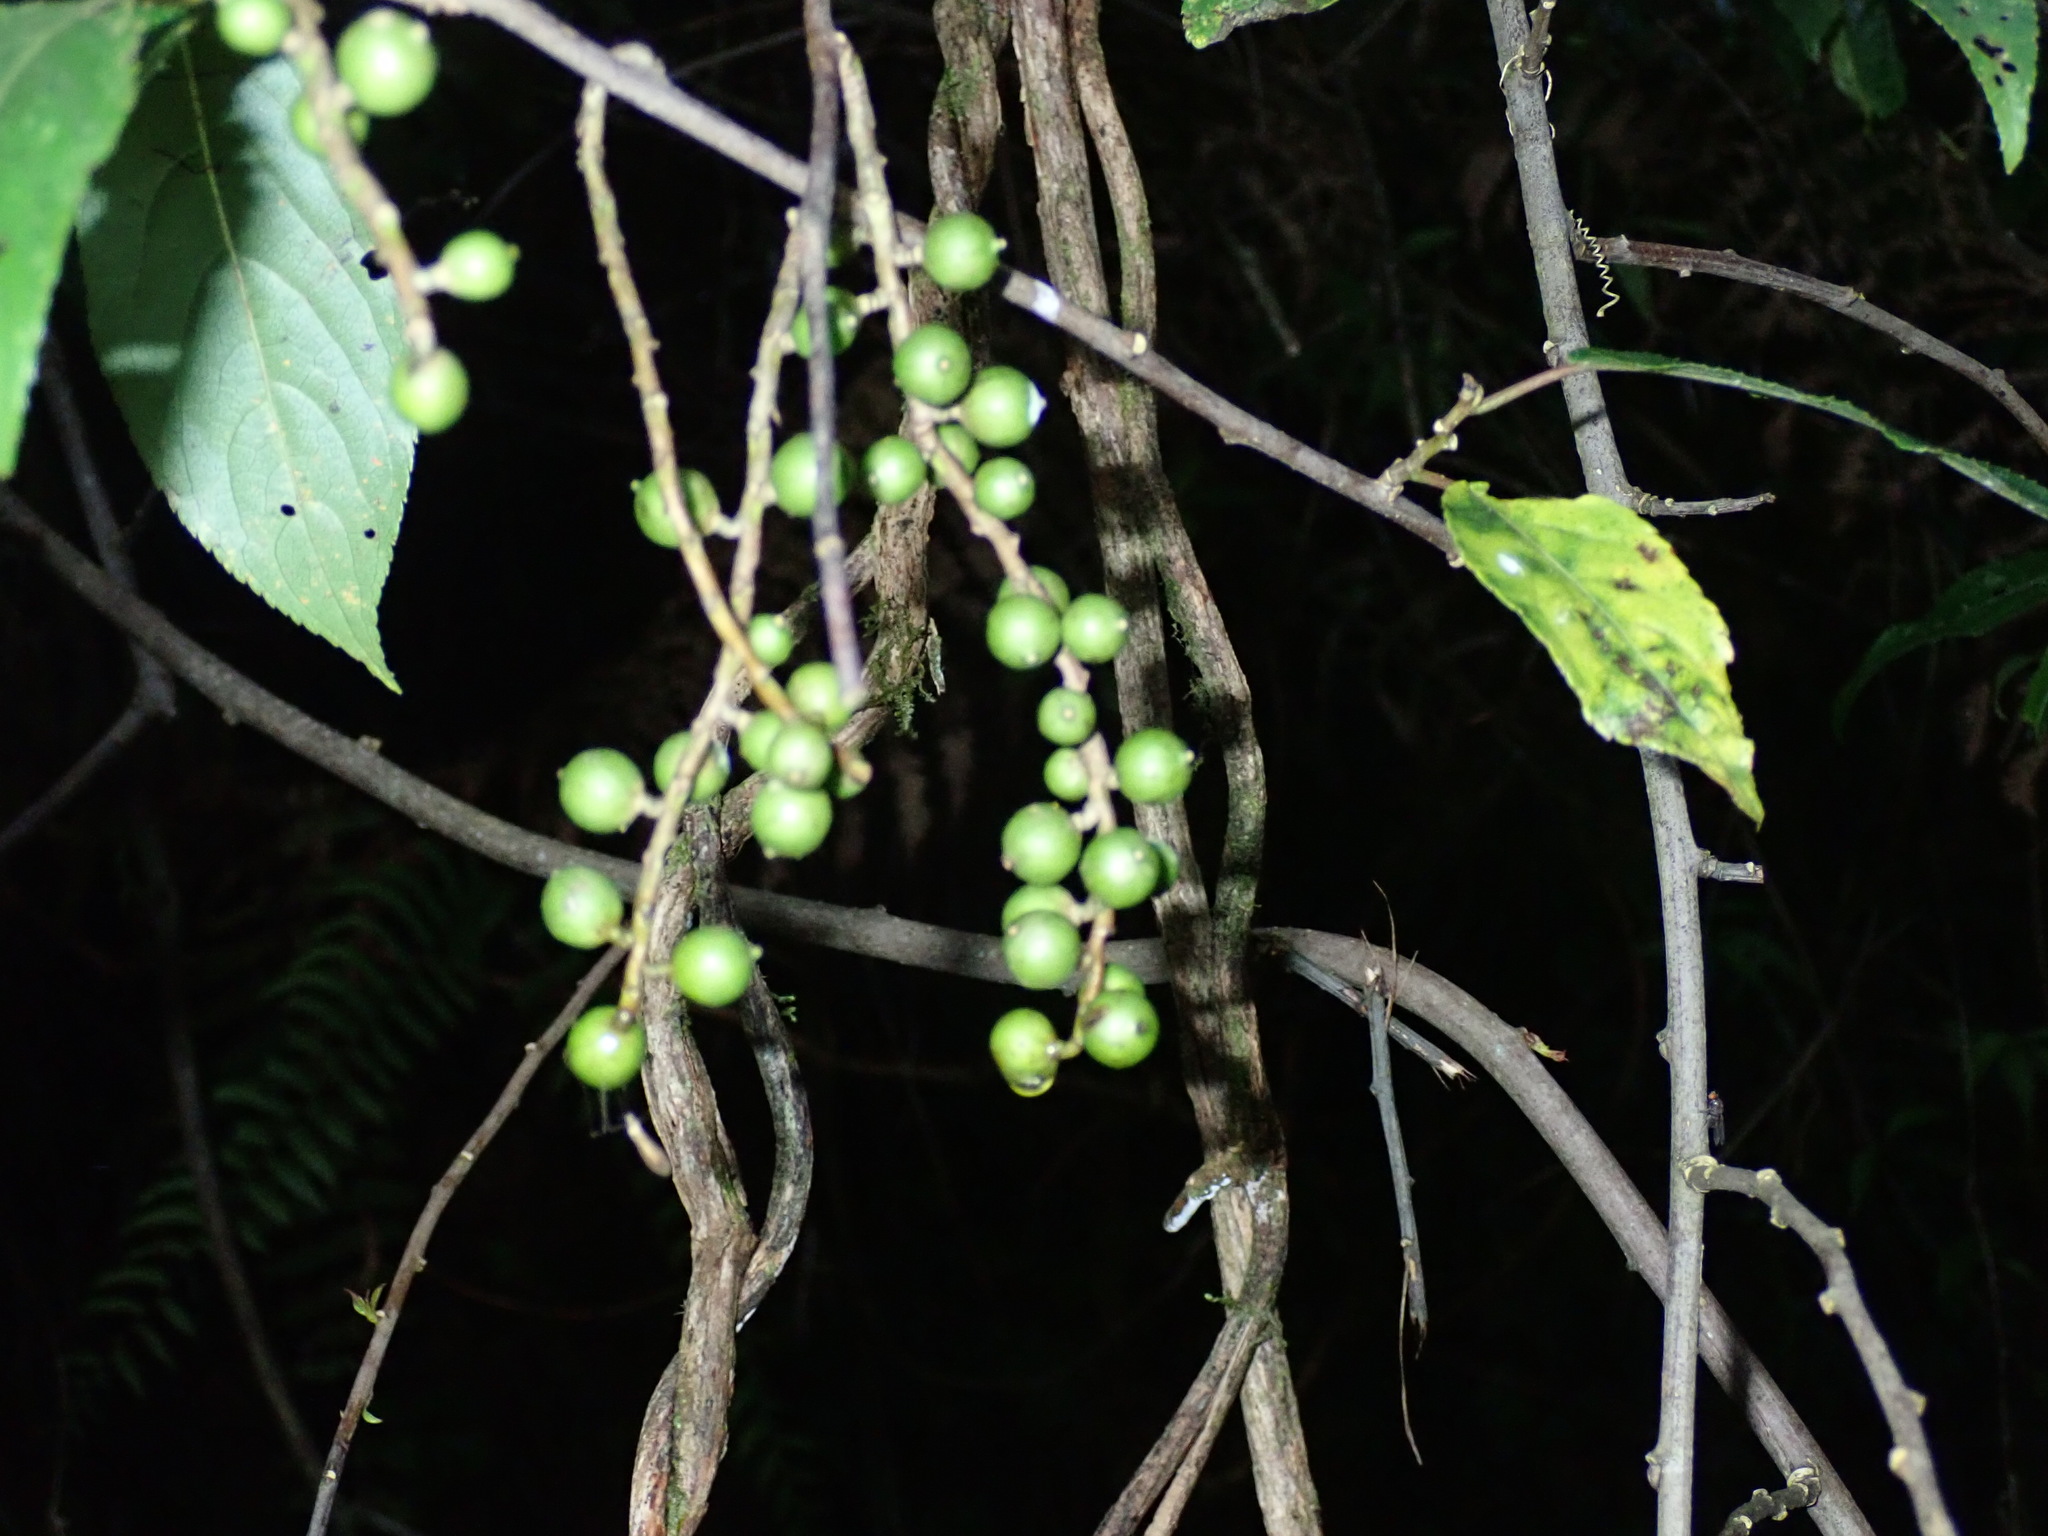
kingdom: Plantae
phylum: Tracheophyta
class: Magnoliopsida
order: Crossosomatales
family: Stachyuraceae
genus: Stachyurus
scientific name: Stachyurus himalaicus
